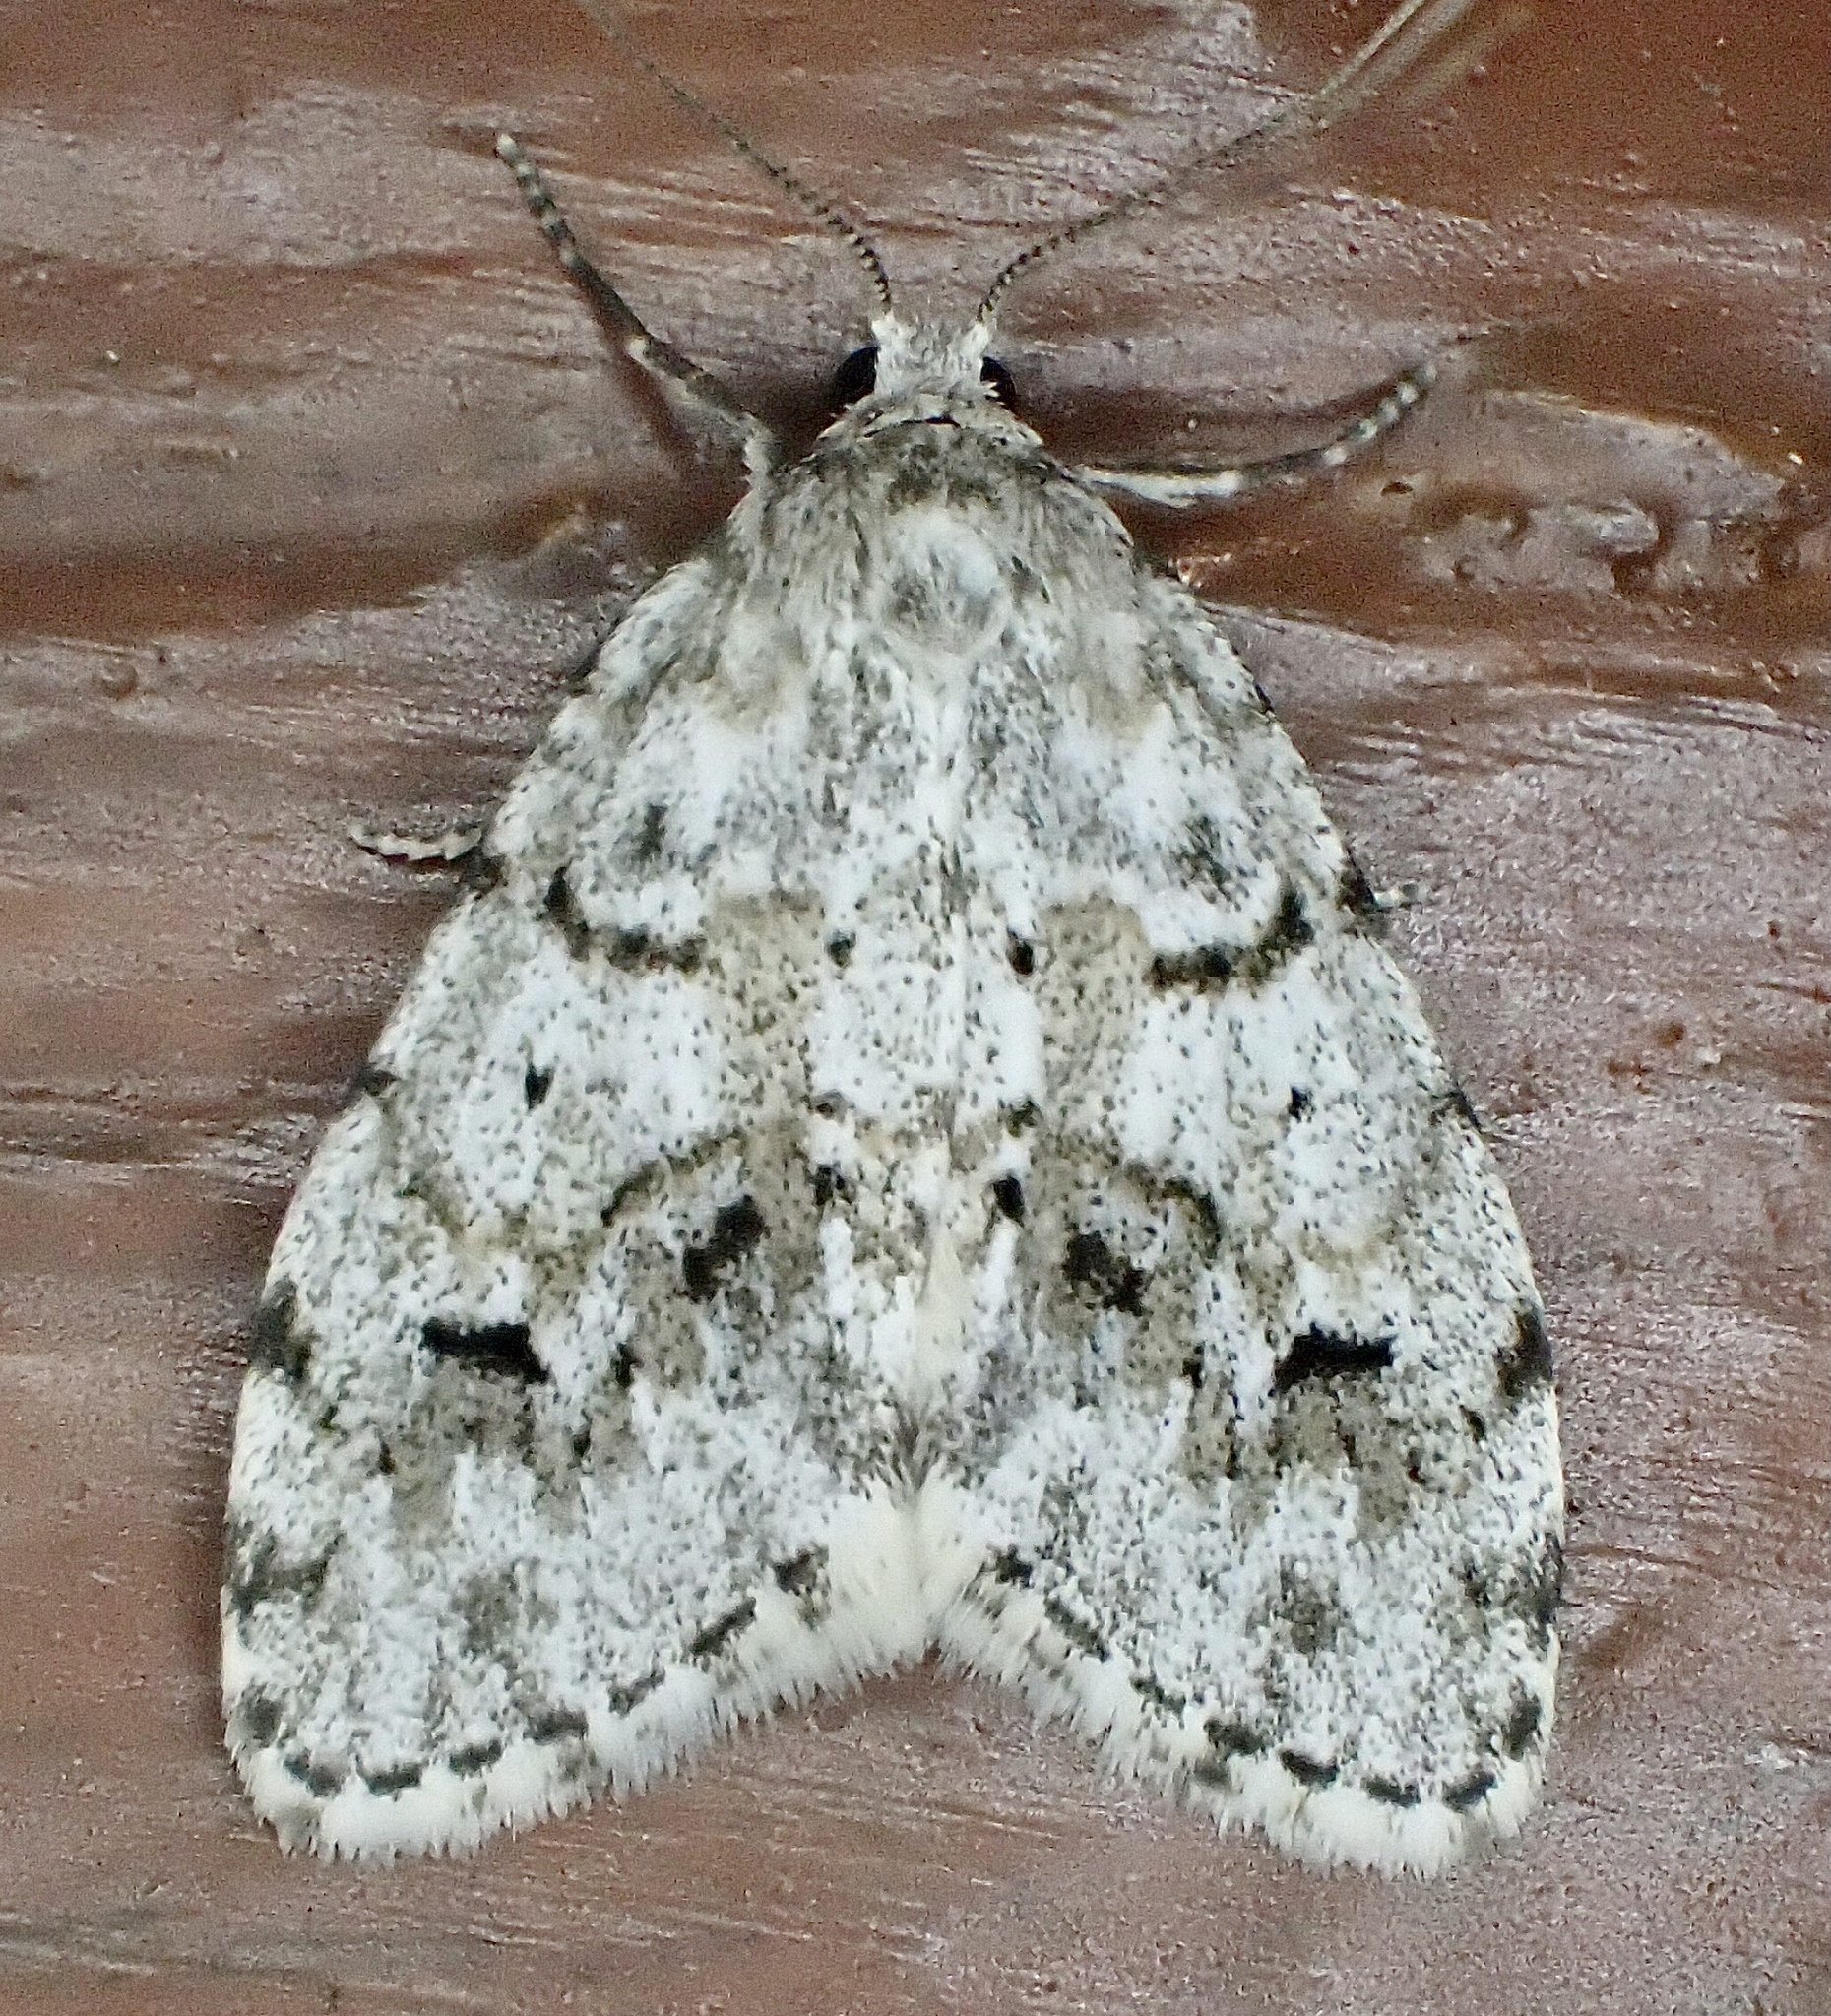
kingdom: Animalia
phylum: Arthropoda
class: Insecta
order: Lepidoptera
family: Erebidae
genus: Clemensia
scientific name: Clemensia umbrata
